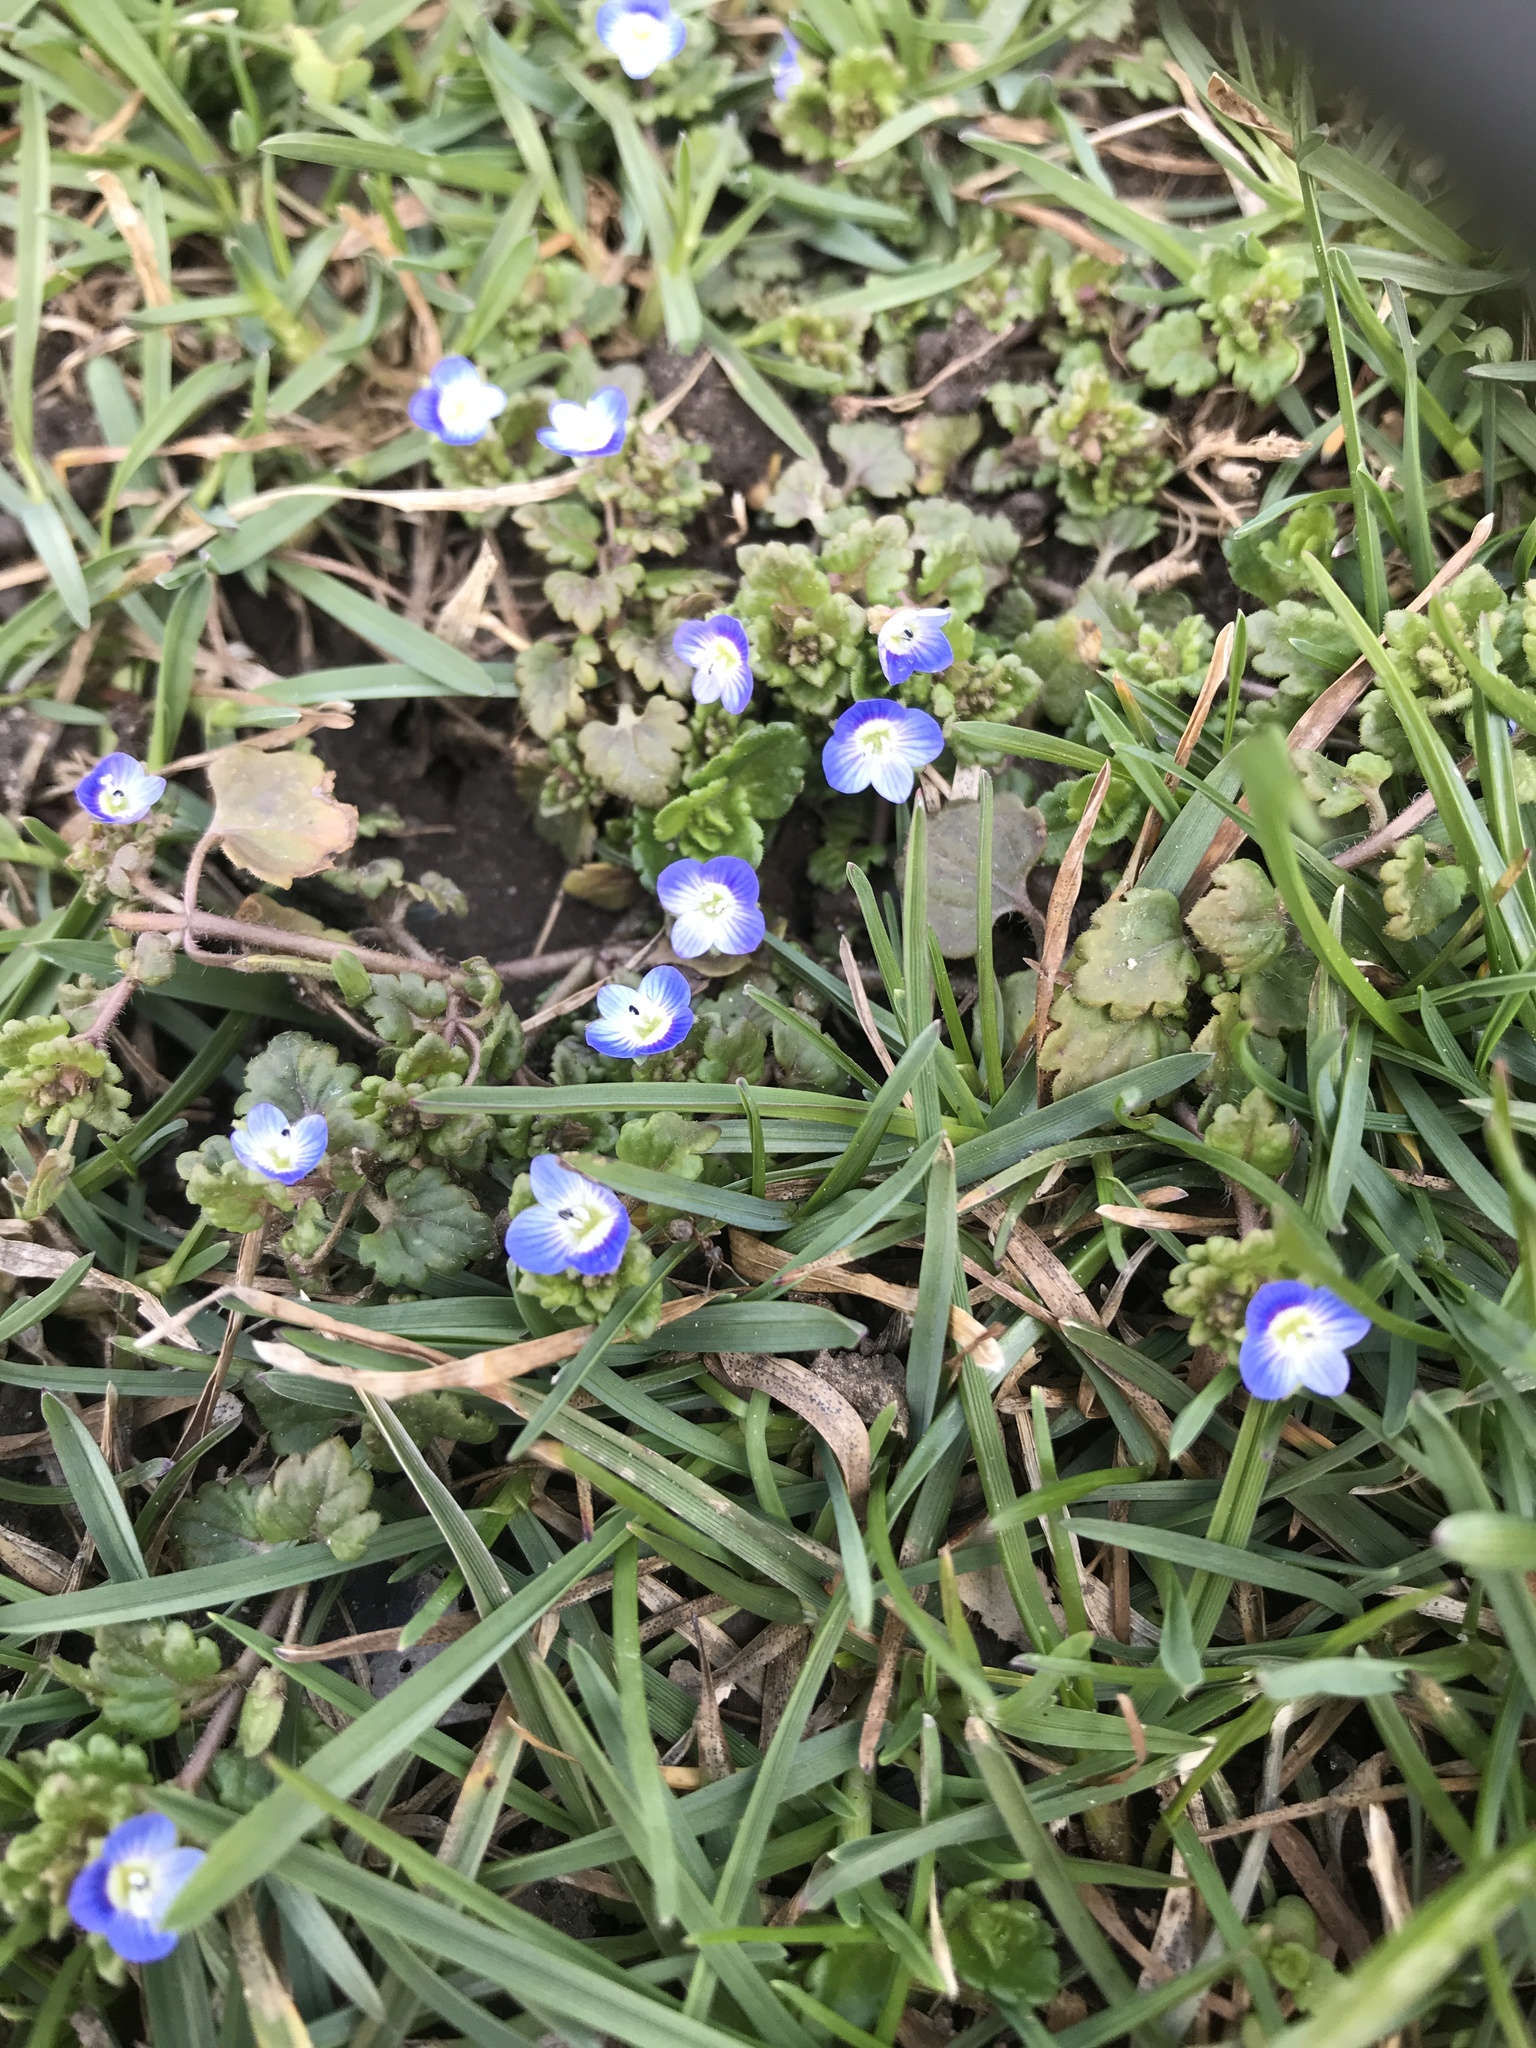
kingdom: Plantae
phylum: Tracheophyta
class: Magnoliopsida
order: Lamiales
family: Plantaginaceae
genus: Veronica
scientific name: Veronica persica
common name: Common field-speedwell
